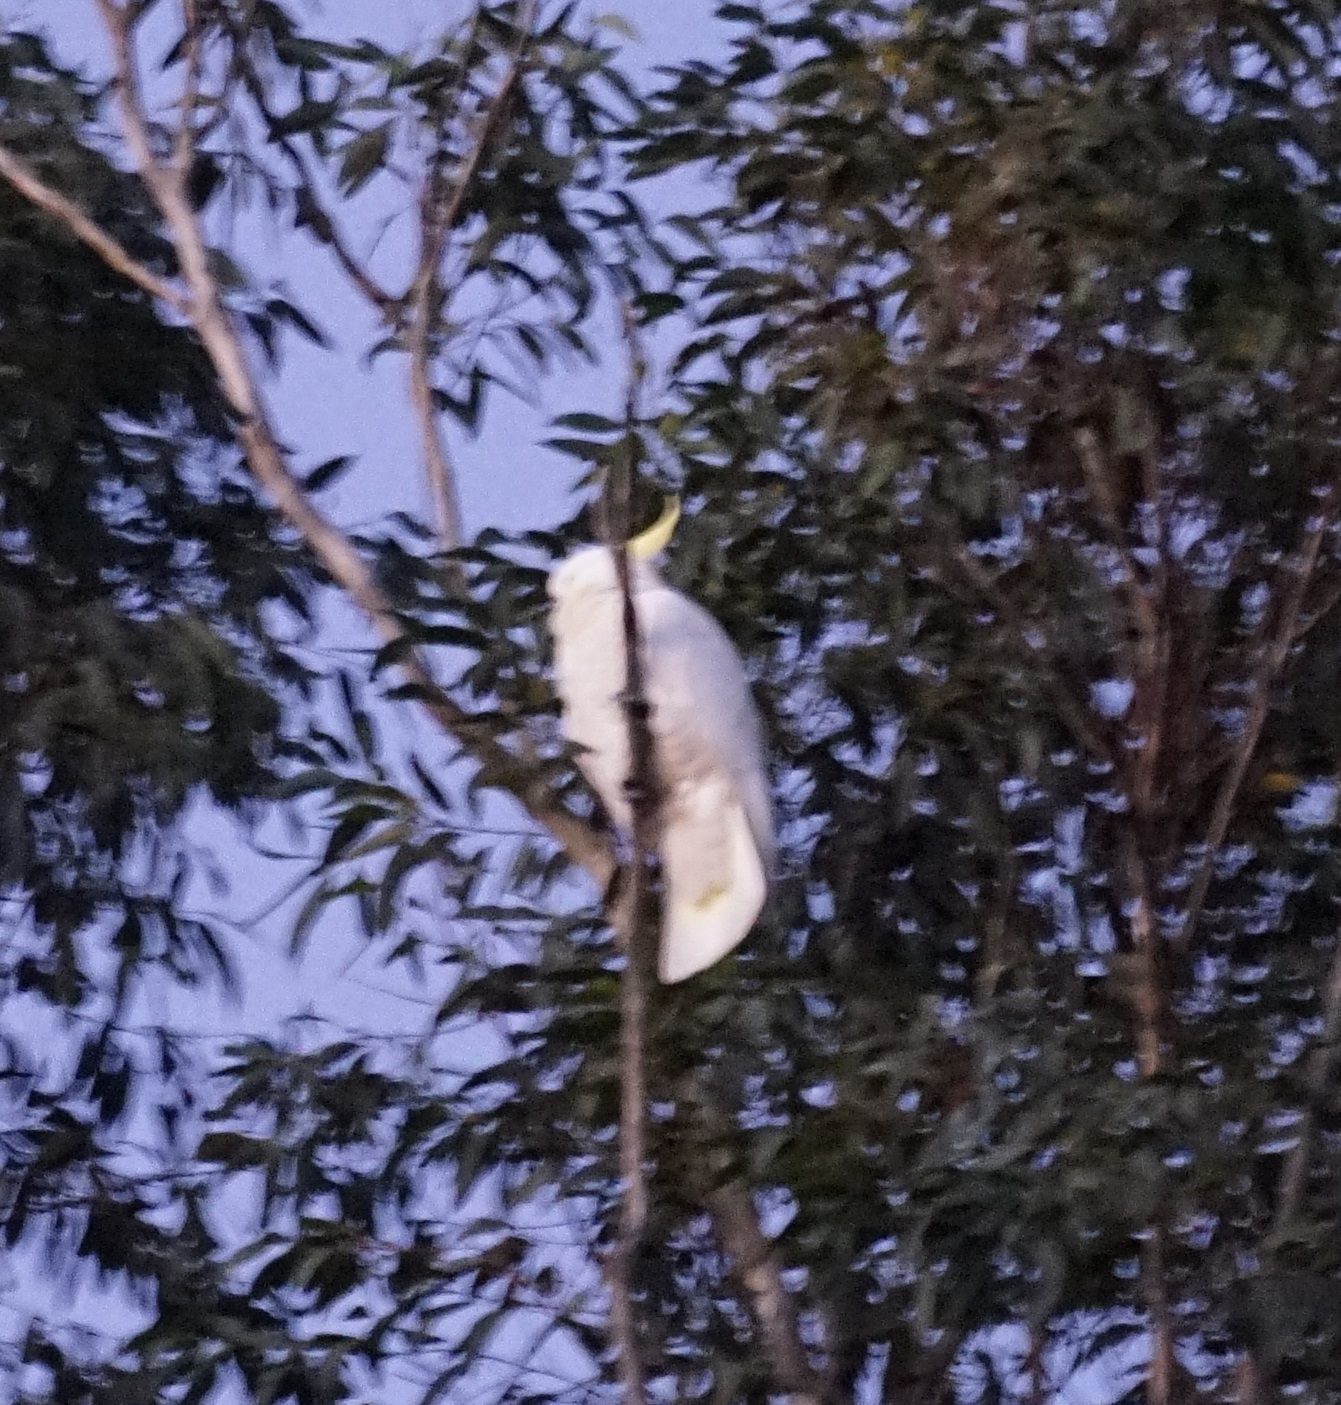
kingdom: Animalia
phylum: Chordata
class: Aves
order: Psittaciformes
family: Psittacidae
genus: Cacatua
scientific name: Cacatua galerita
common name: Sulphur-crested cockatoo
